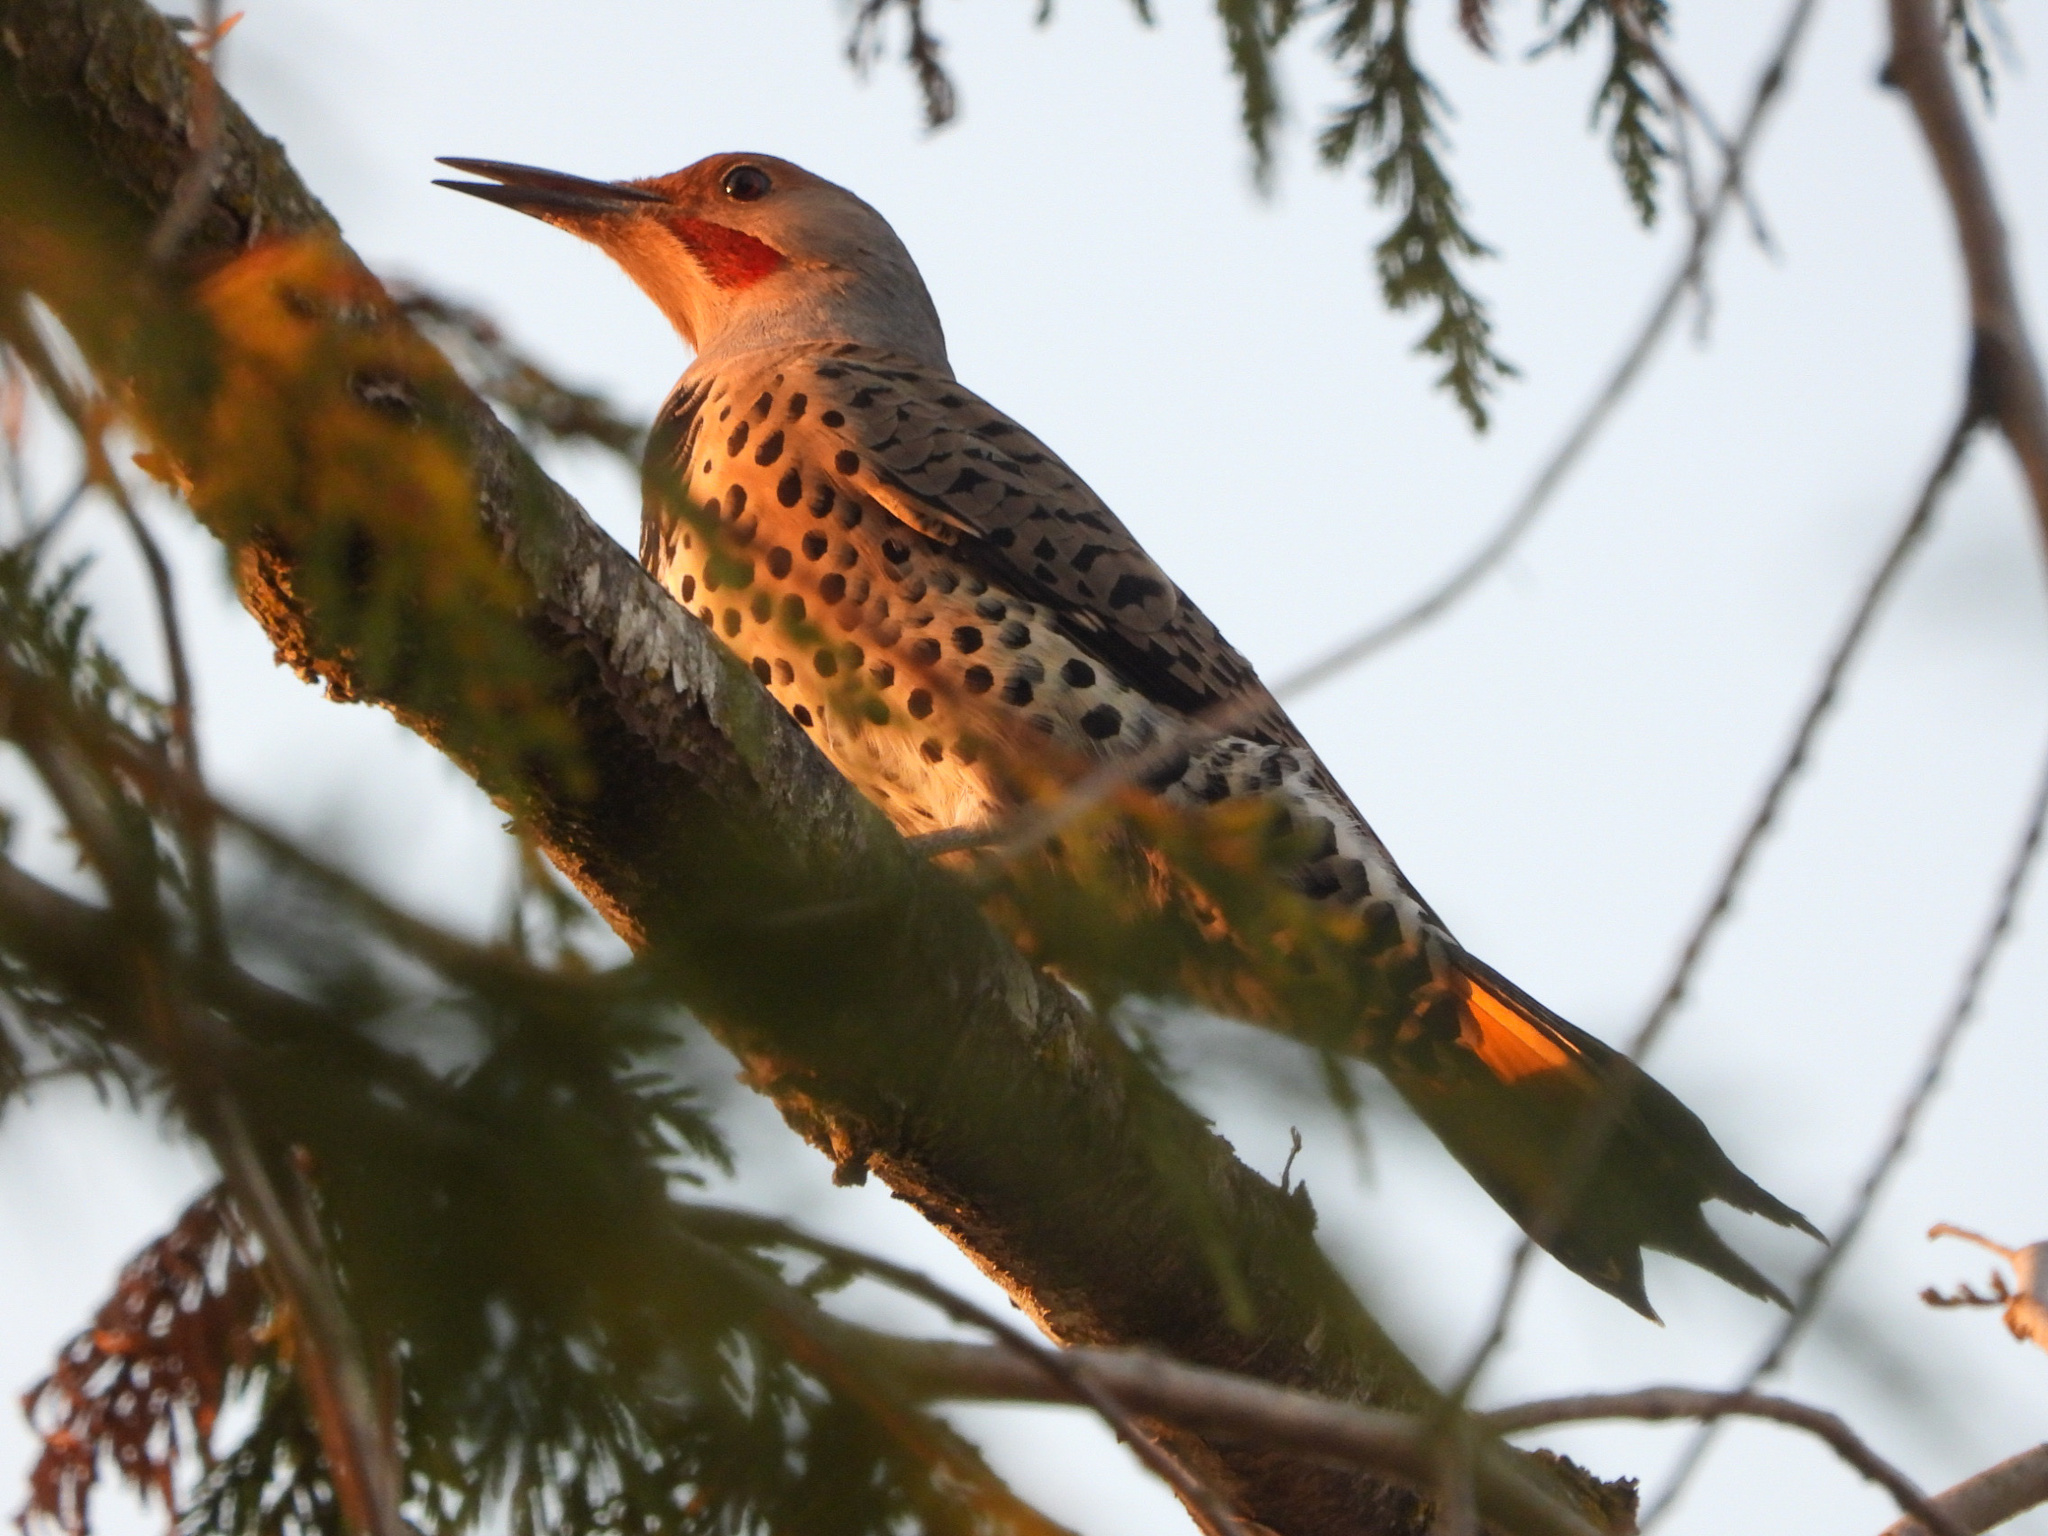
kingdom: Animalia
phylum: Chordata
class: Aves
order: Piciformes
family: Picidae
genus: Colaptes
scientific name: Colaptes
